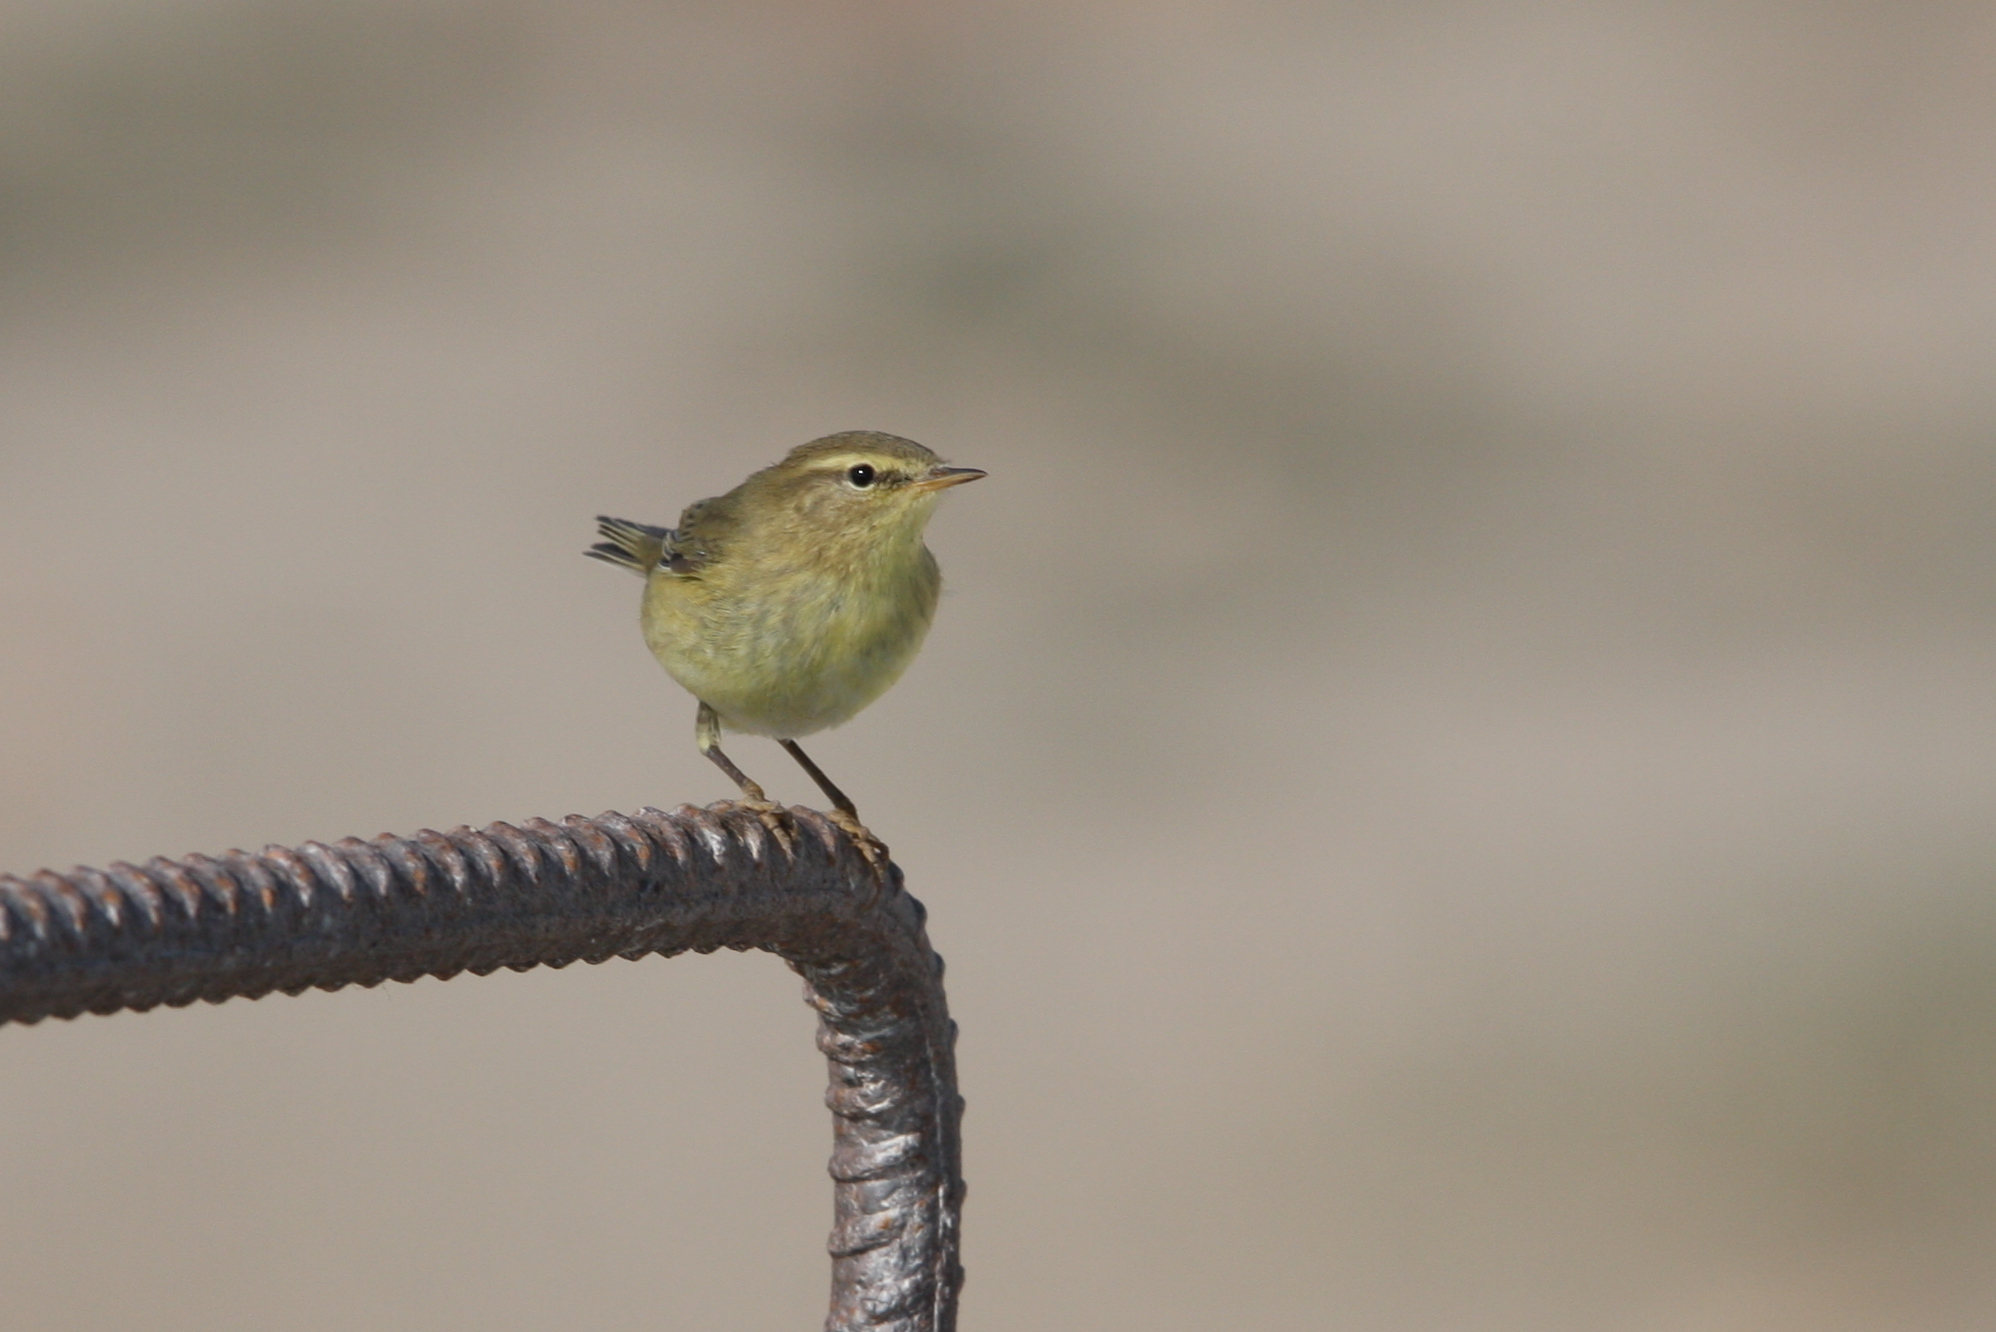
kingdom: Animalia
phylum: Chordata
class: Aves
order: Passeriformes
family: Phylloscopidae
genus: Phylloscopus
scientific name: Phylloscopus collybita
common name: Common chiffchaff
